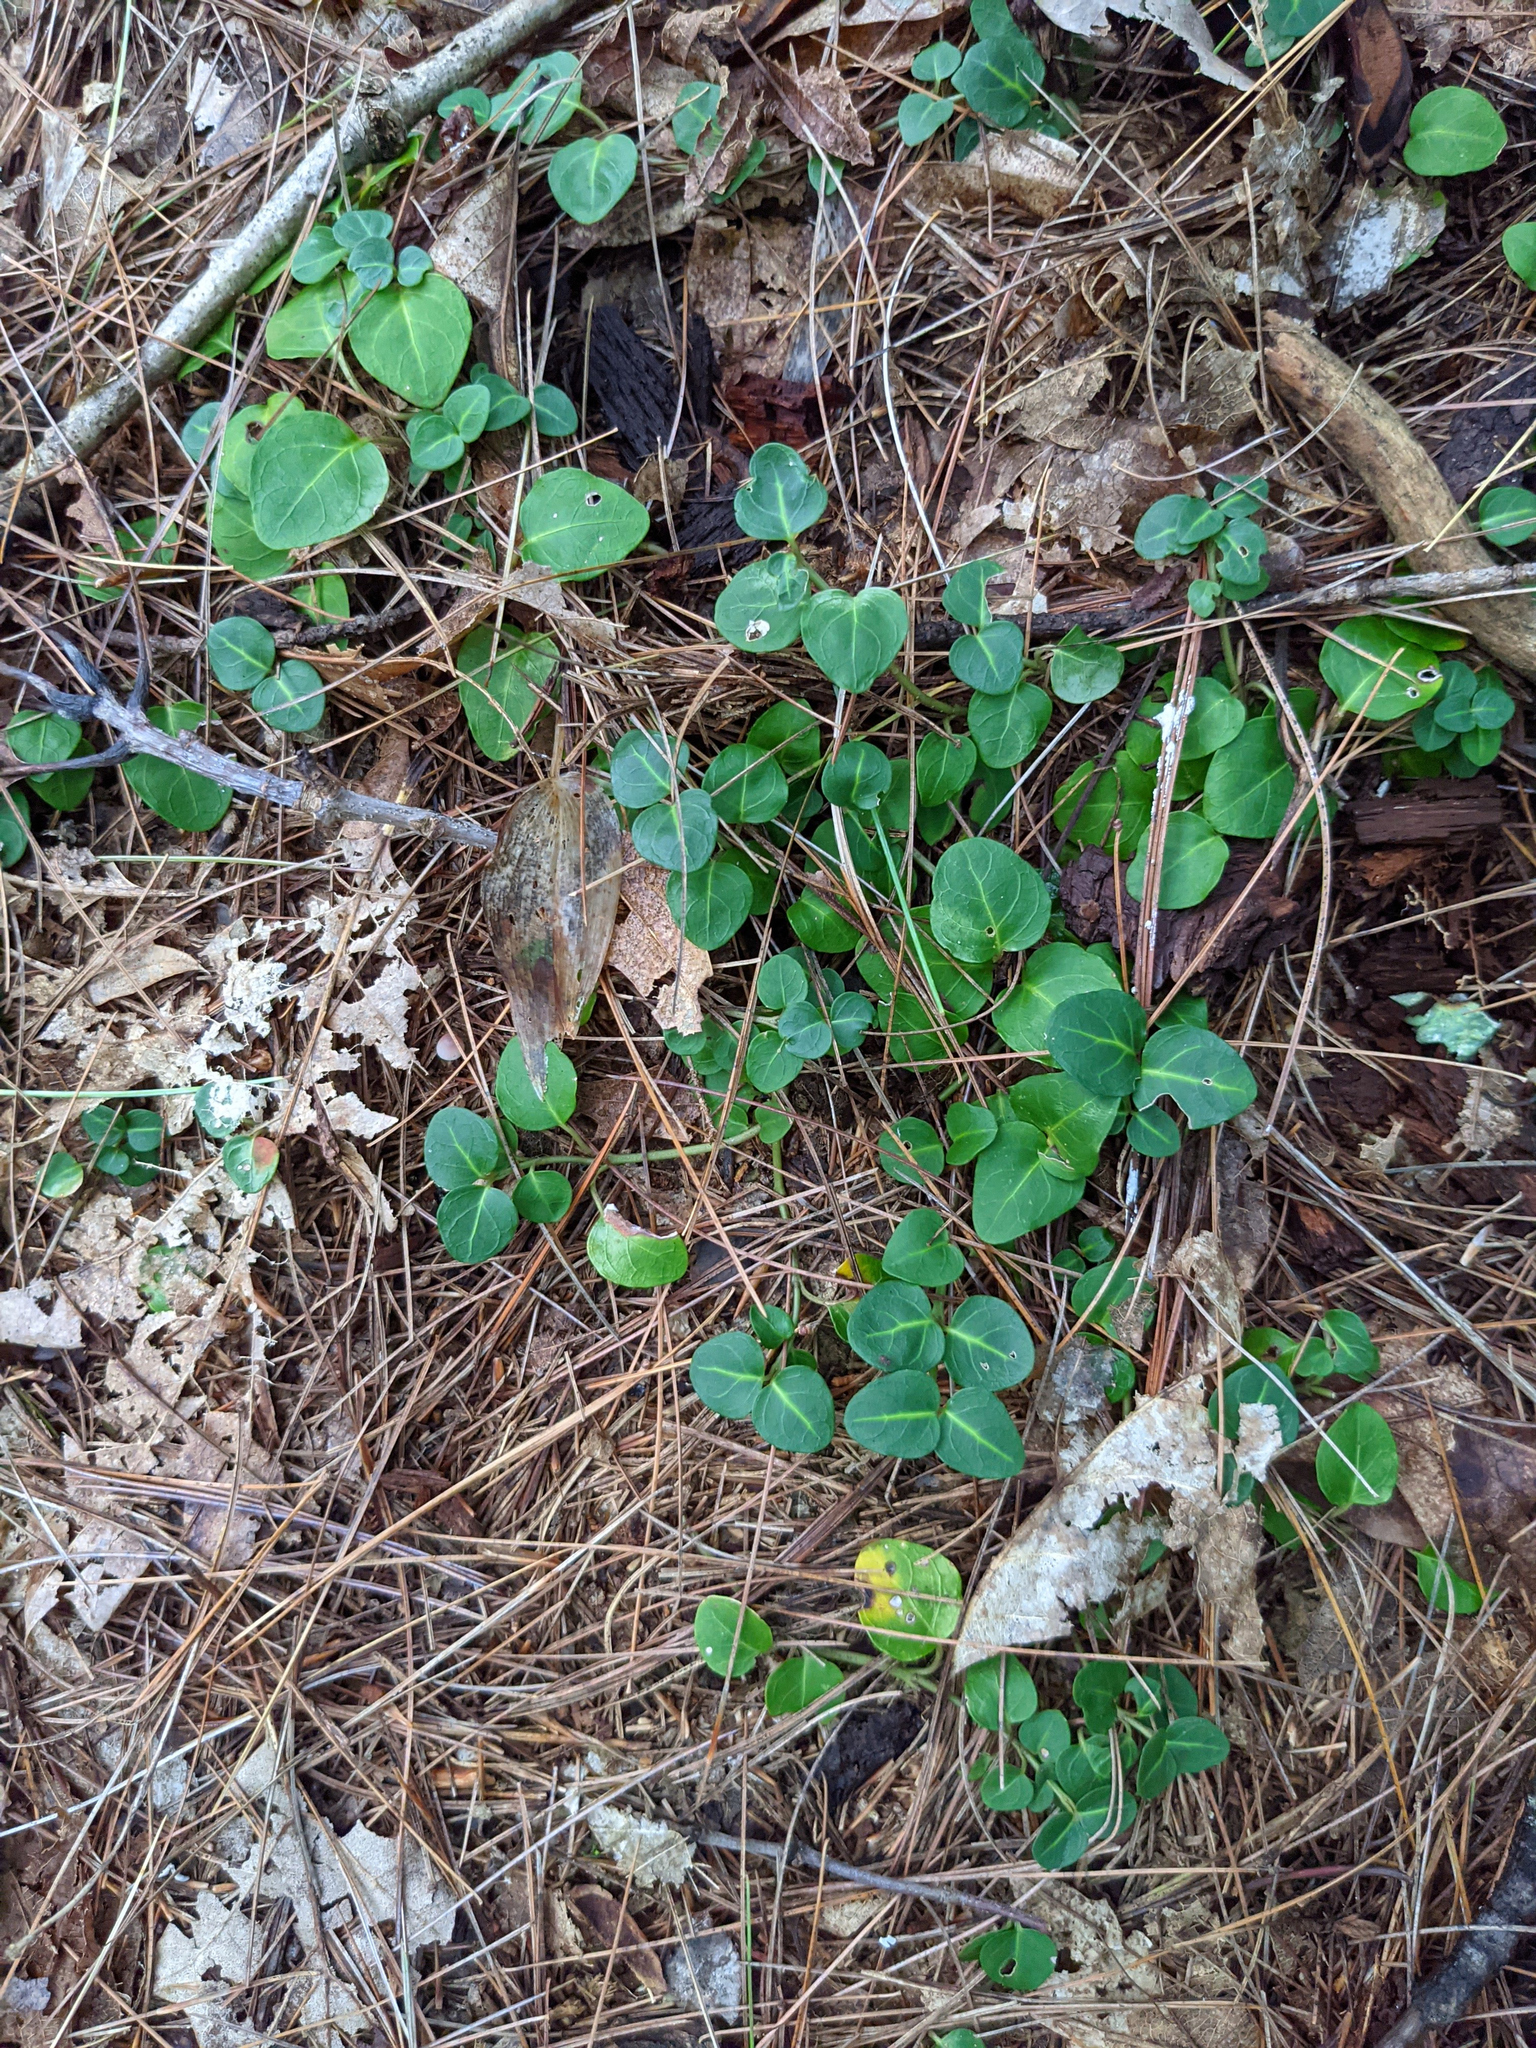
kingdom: Plantae
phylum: Tracheophyta
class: Magnoliopsida
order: Gentianales
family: Rubiaceae
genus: Mitchella
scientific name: Mitchella repens
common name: Partridge-berry
